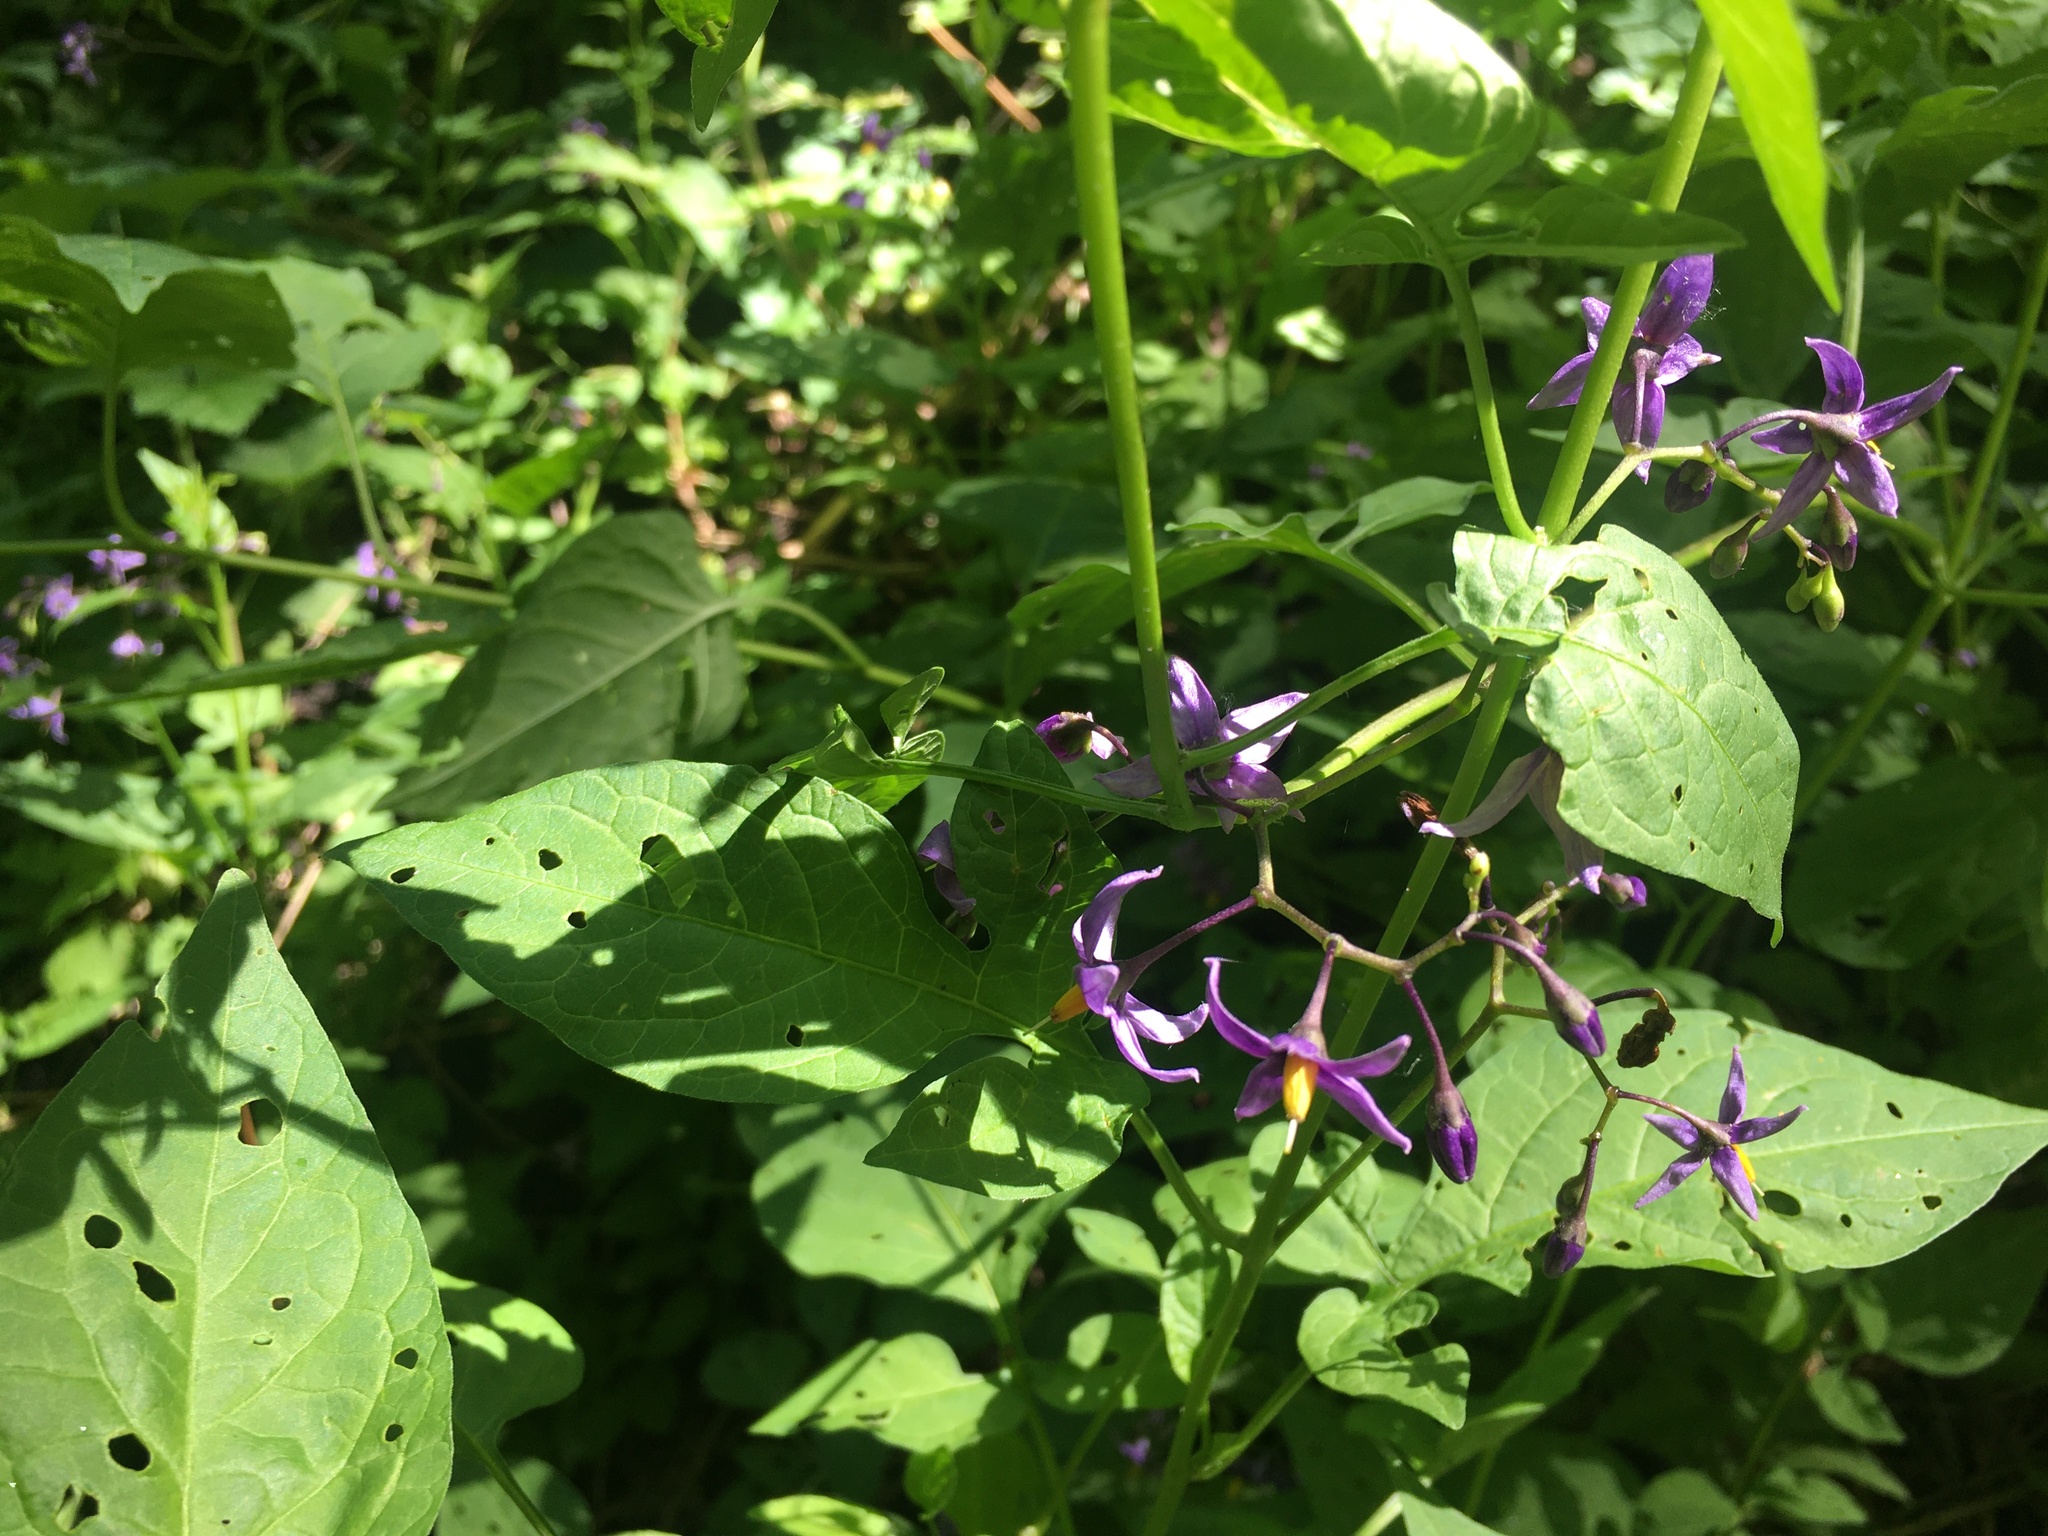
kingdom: Plantae
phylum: Tracheophyta
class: Magnoliopsida
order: Solanales
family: Solanaceae
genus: Solanum
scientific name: Solanum dulcamara
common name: Climbing nightshade
